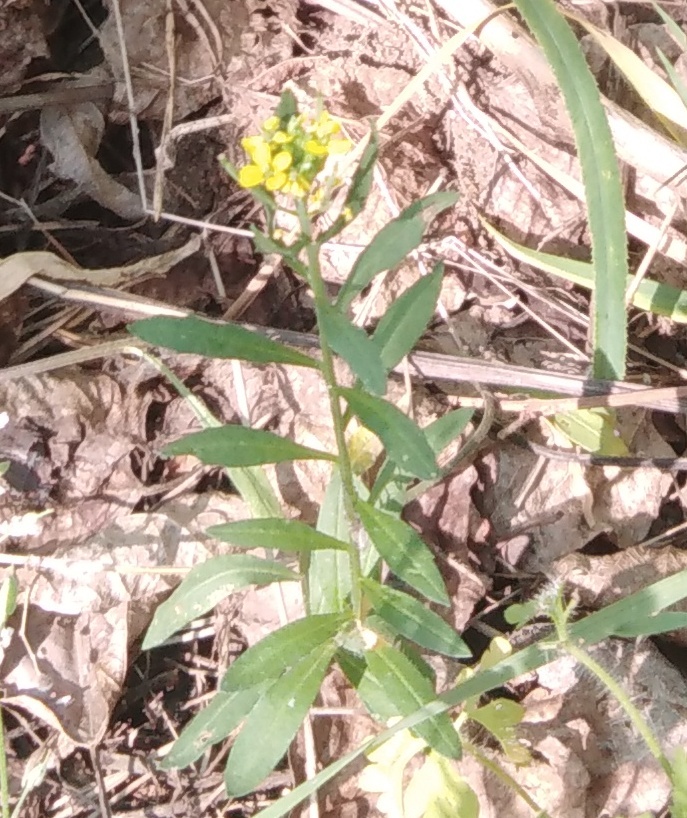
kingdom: Plantae
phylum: Tracheophyta
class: Magnoliopsida
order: Brassicales
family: Brassicaceae
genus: Erysimum
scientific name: Erysimum cheiranthoides
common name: Treacle mustard
